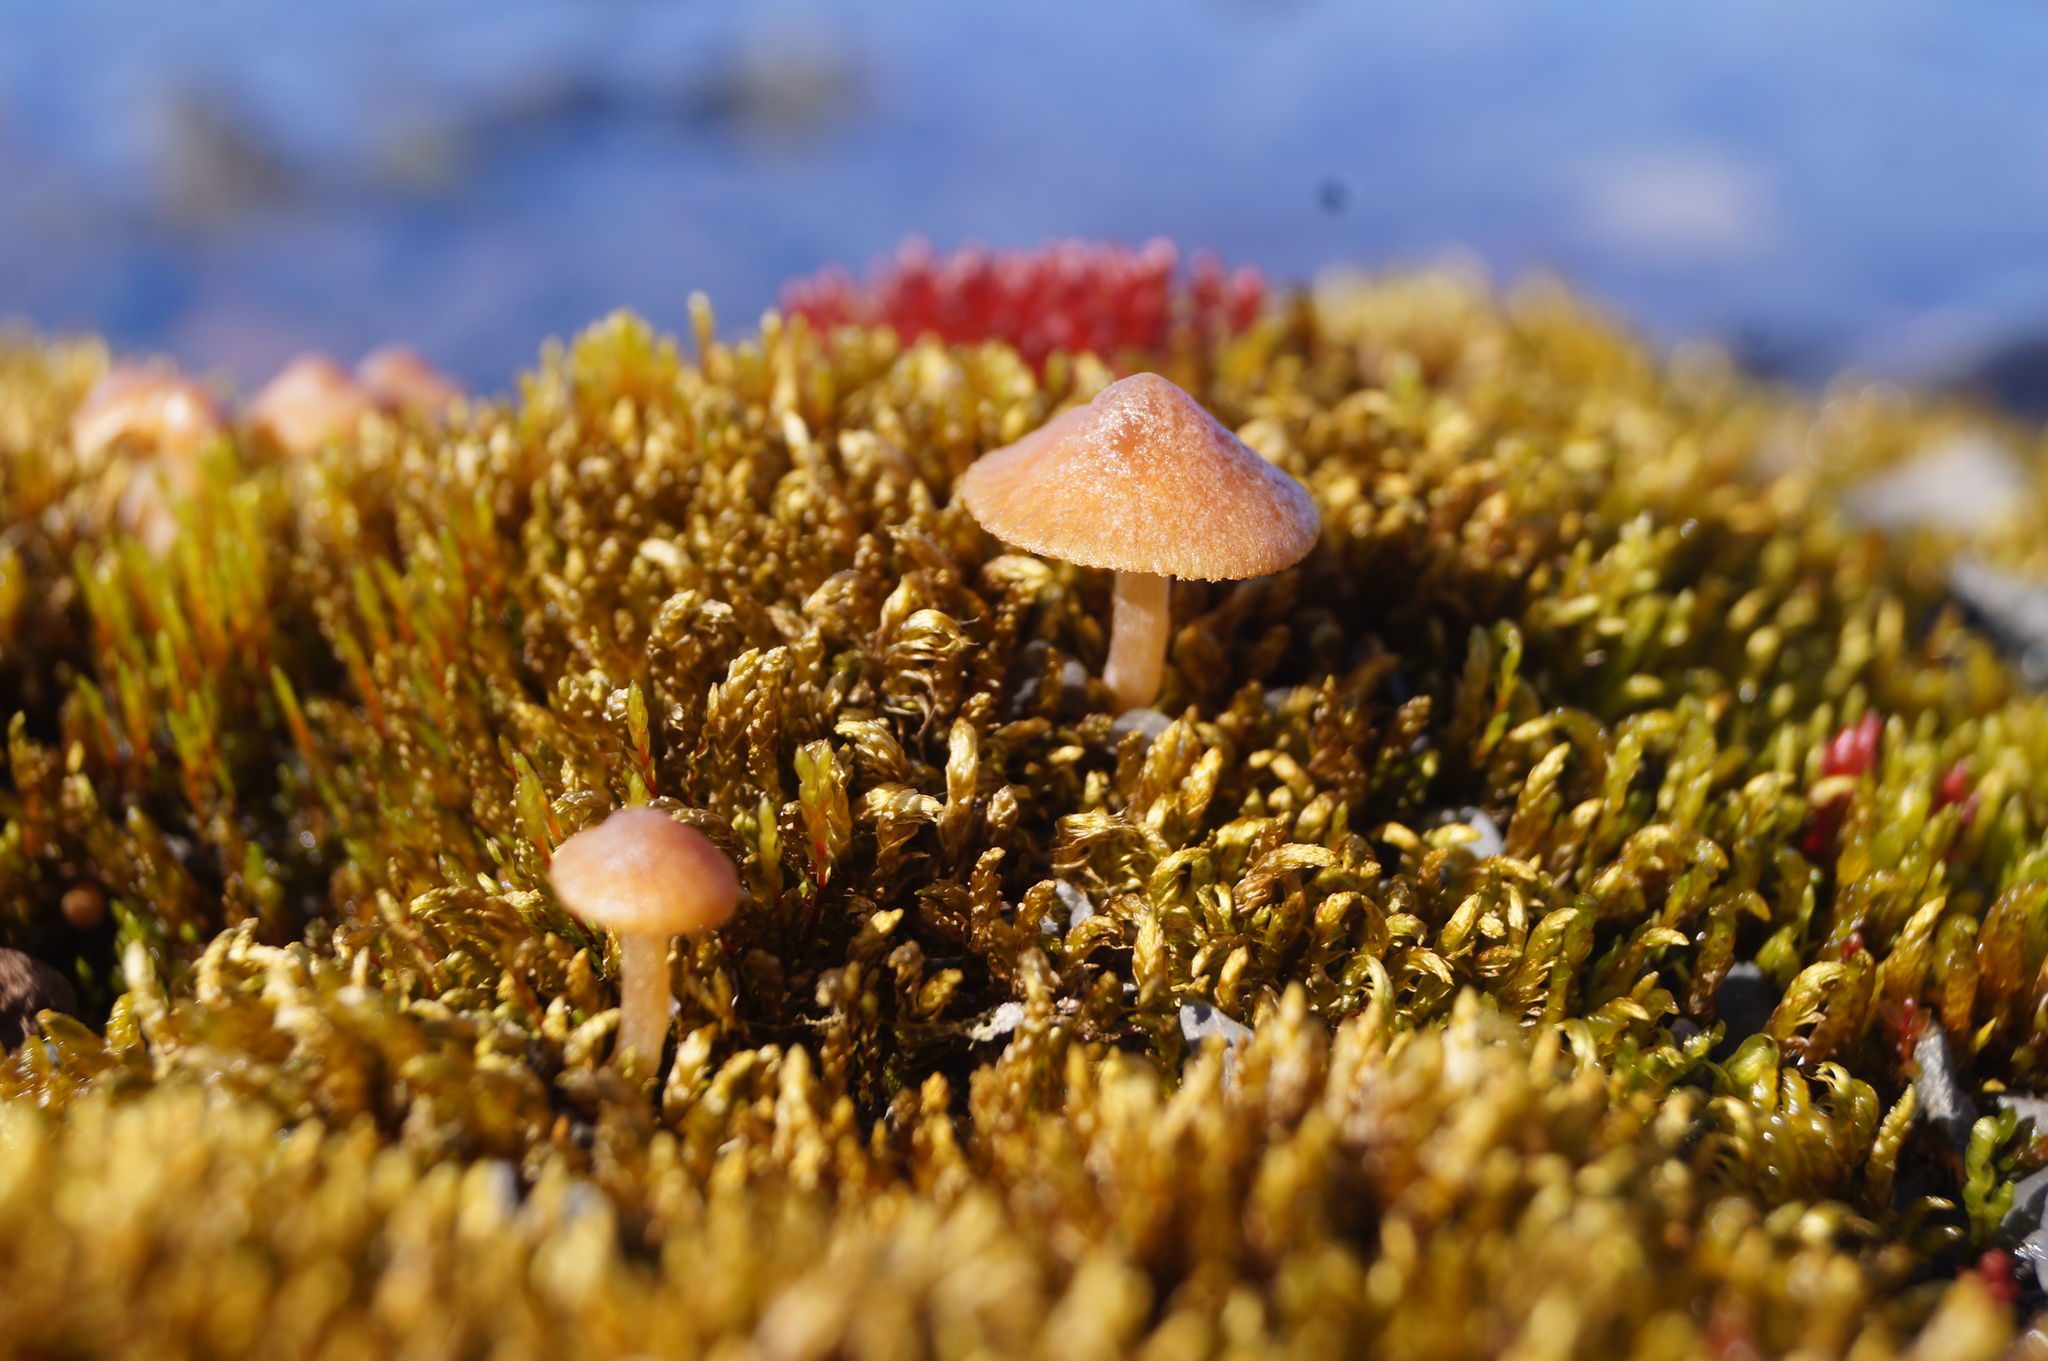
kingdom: Fungi
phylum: Basidiomycota
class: Agaricomycetes
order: Agaricales
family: Tubariaceae
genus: Tubaria
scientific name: Tubaria furfuracea
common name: Scurfy twiglet
